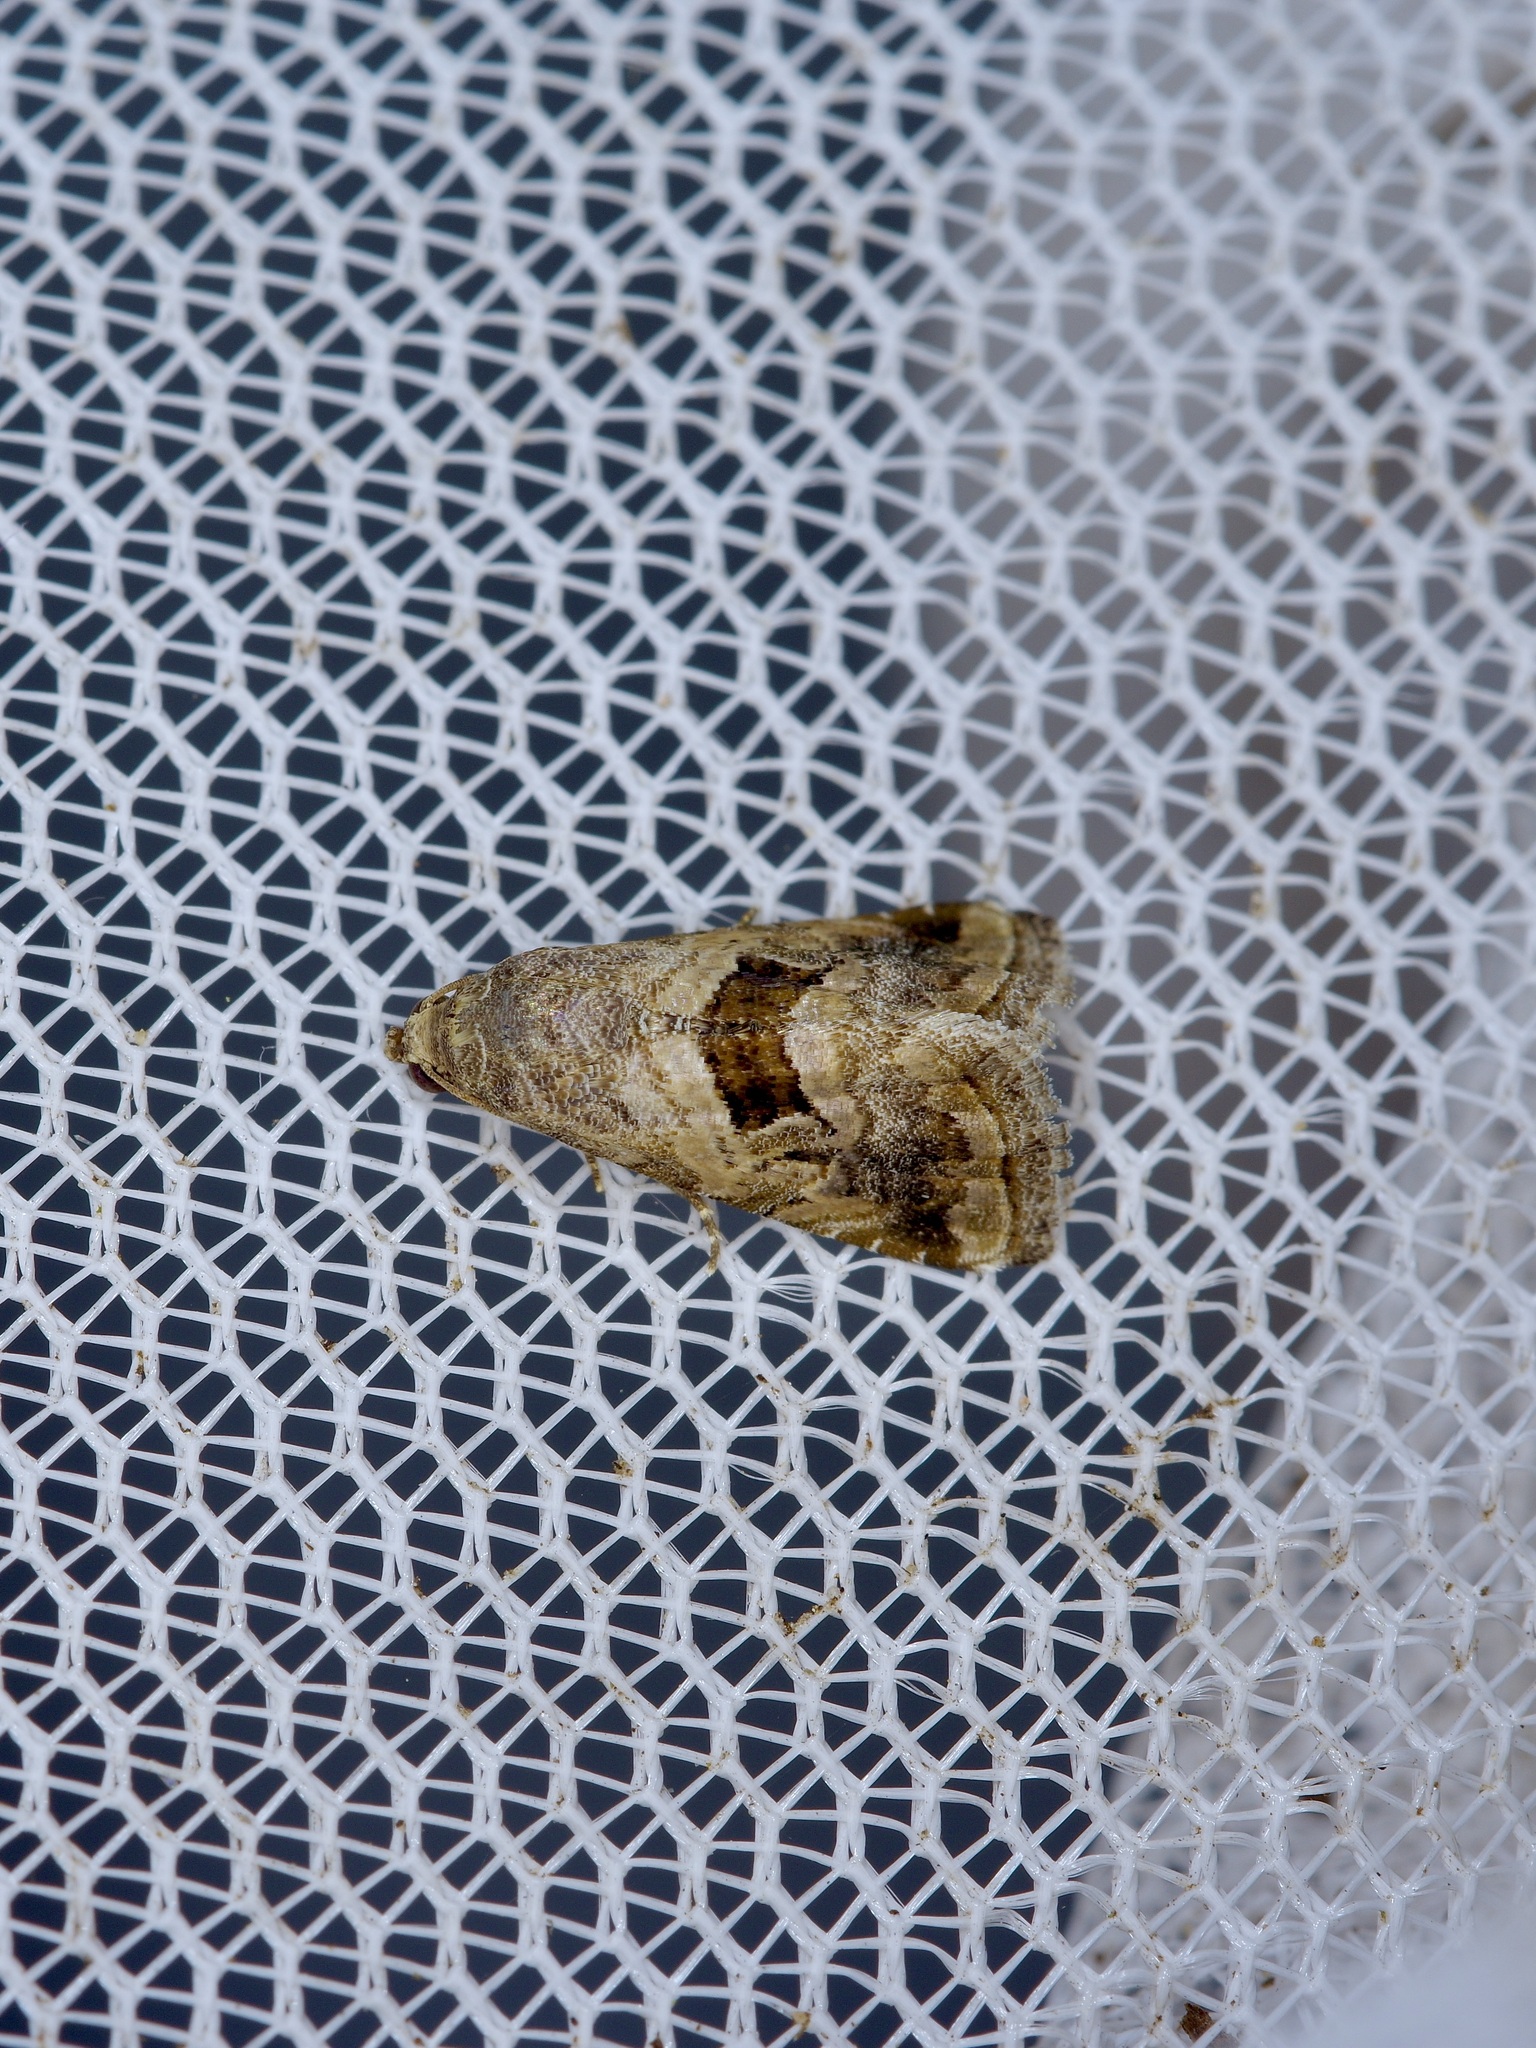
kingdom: Animalia
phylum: Arthropoda
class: Insecta
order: Lepidoptera
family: Noctuidae
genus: Tripudia
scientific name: Tripudia quadrifera
